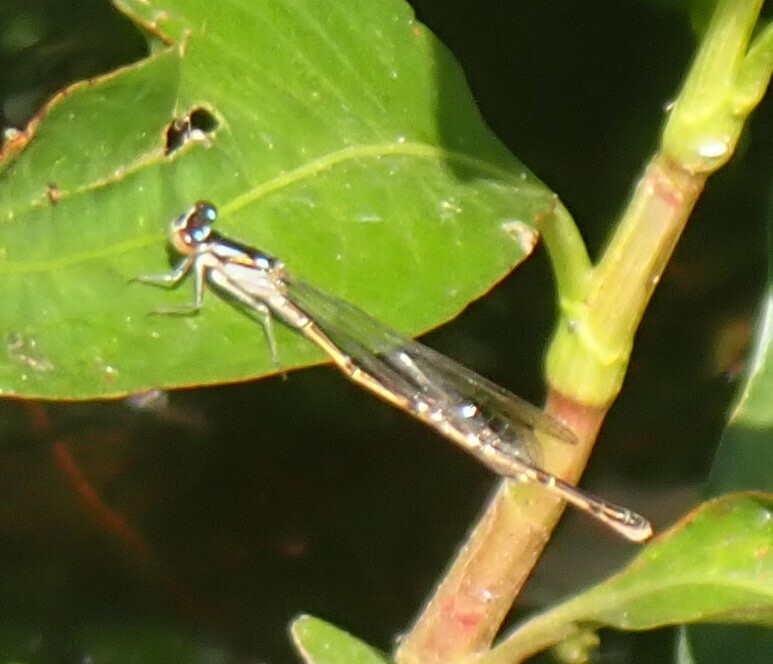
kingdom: Animalia
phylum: Arthropoda
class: Insecta
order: Odonata
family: Coenagrionidae
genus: Ischnura
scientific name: Ischnura posita
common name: Fragile forktail
